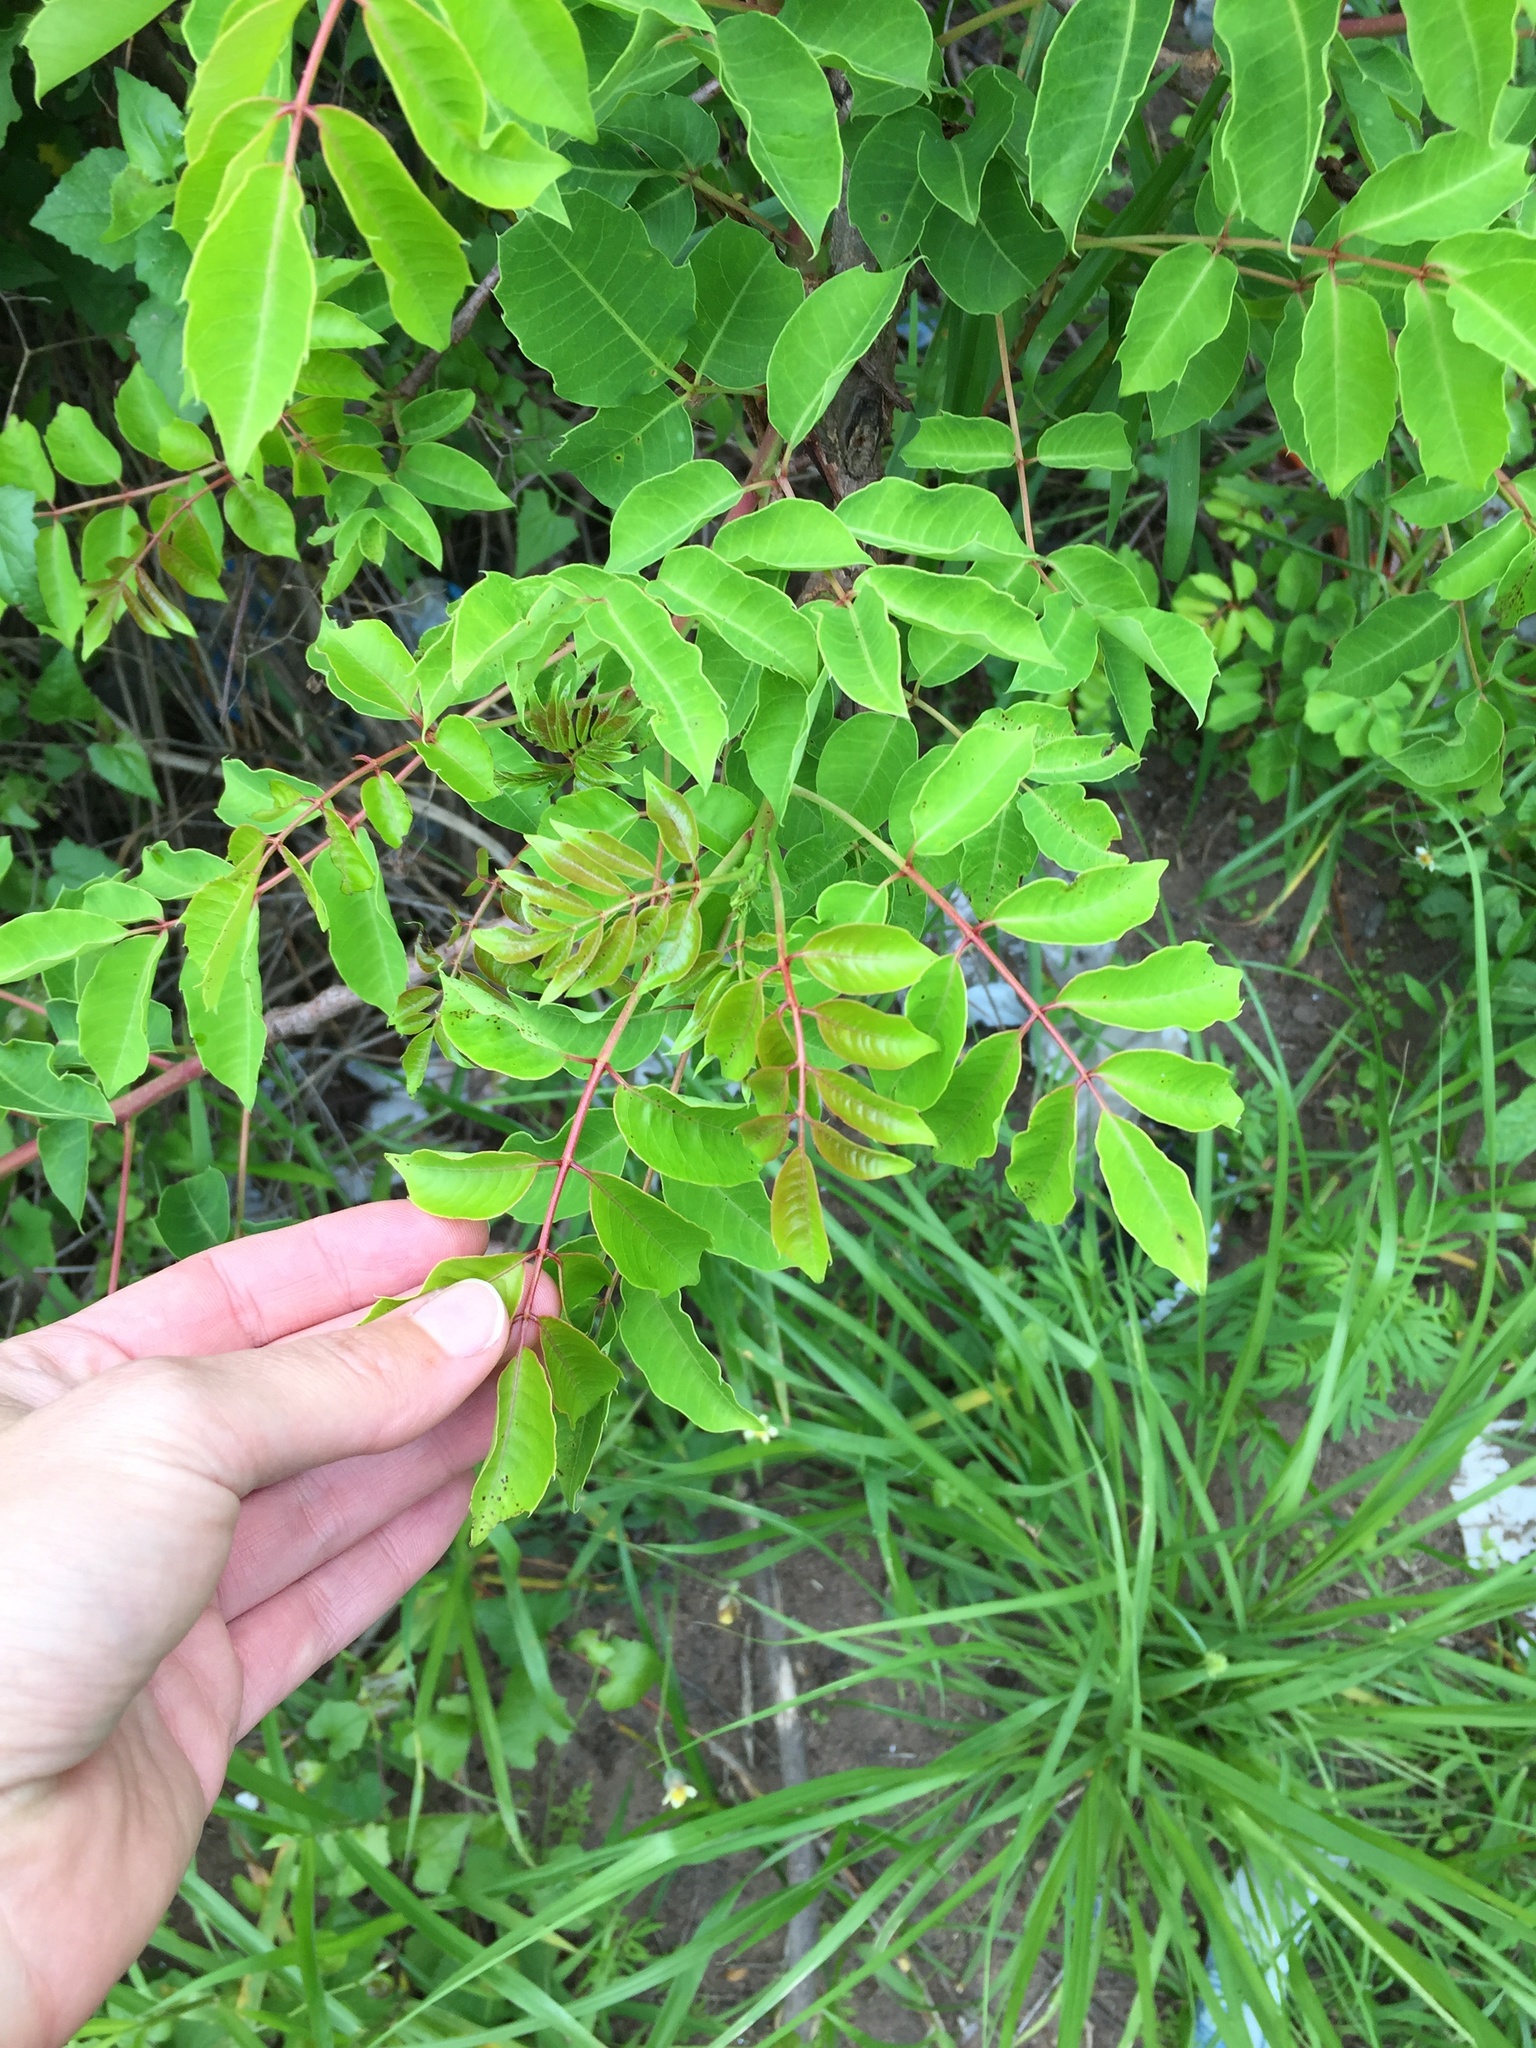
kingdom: Plantae
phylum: Tracheophyta
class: Magnoliopsida
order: Sapindales
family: Anacardiaceae
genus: Sclerocarya
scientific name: Sclerocarya birrea
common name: Marula
